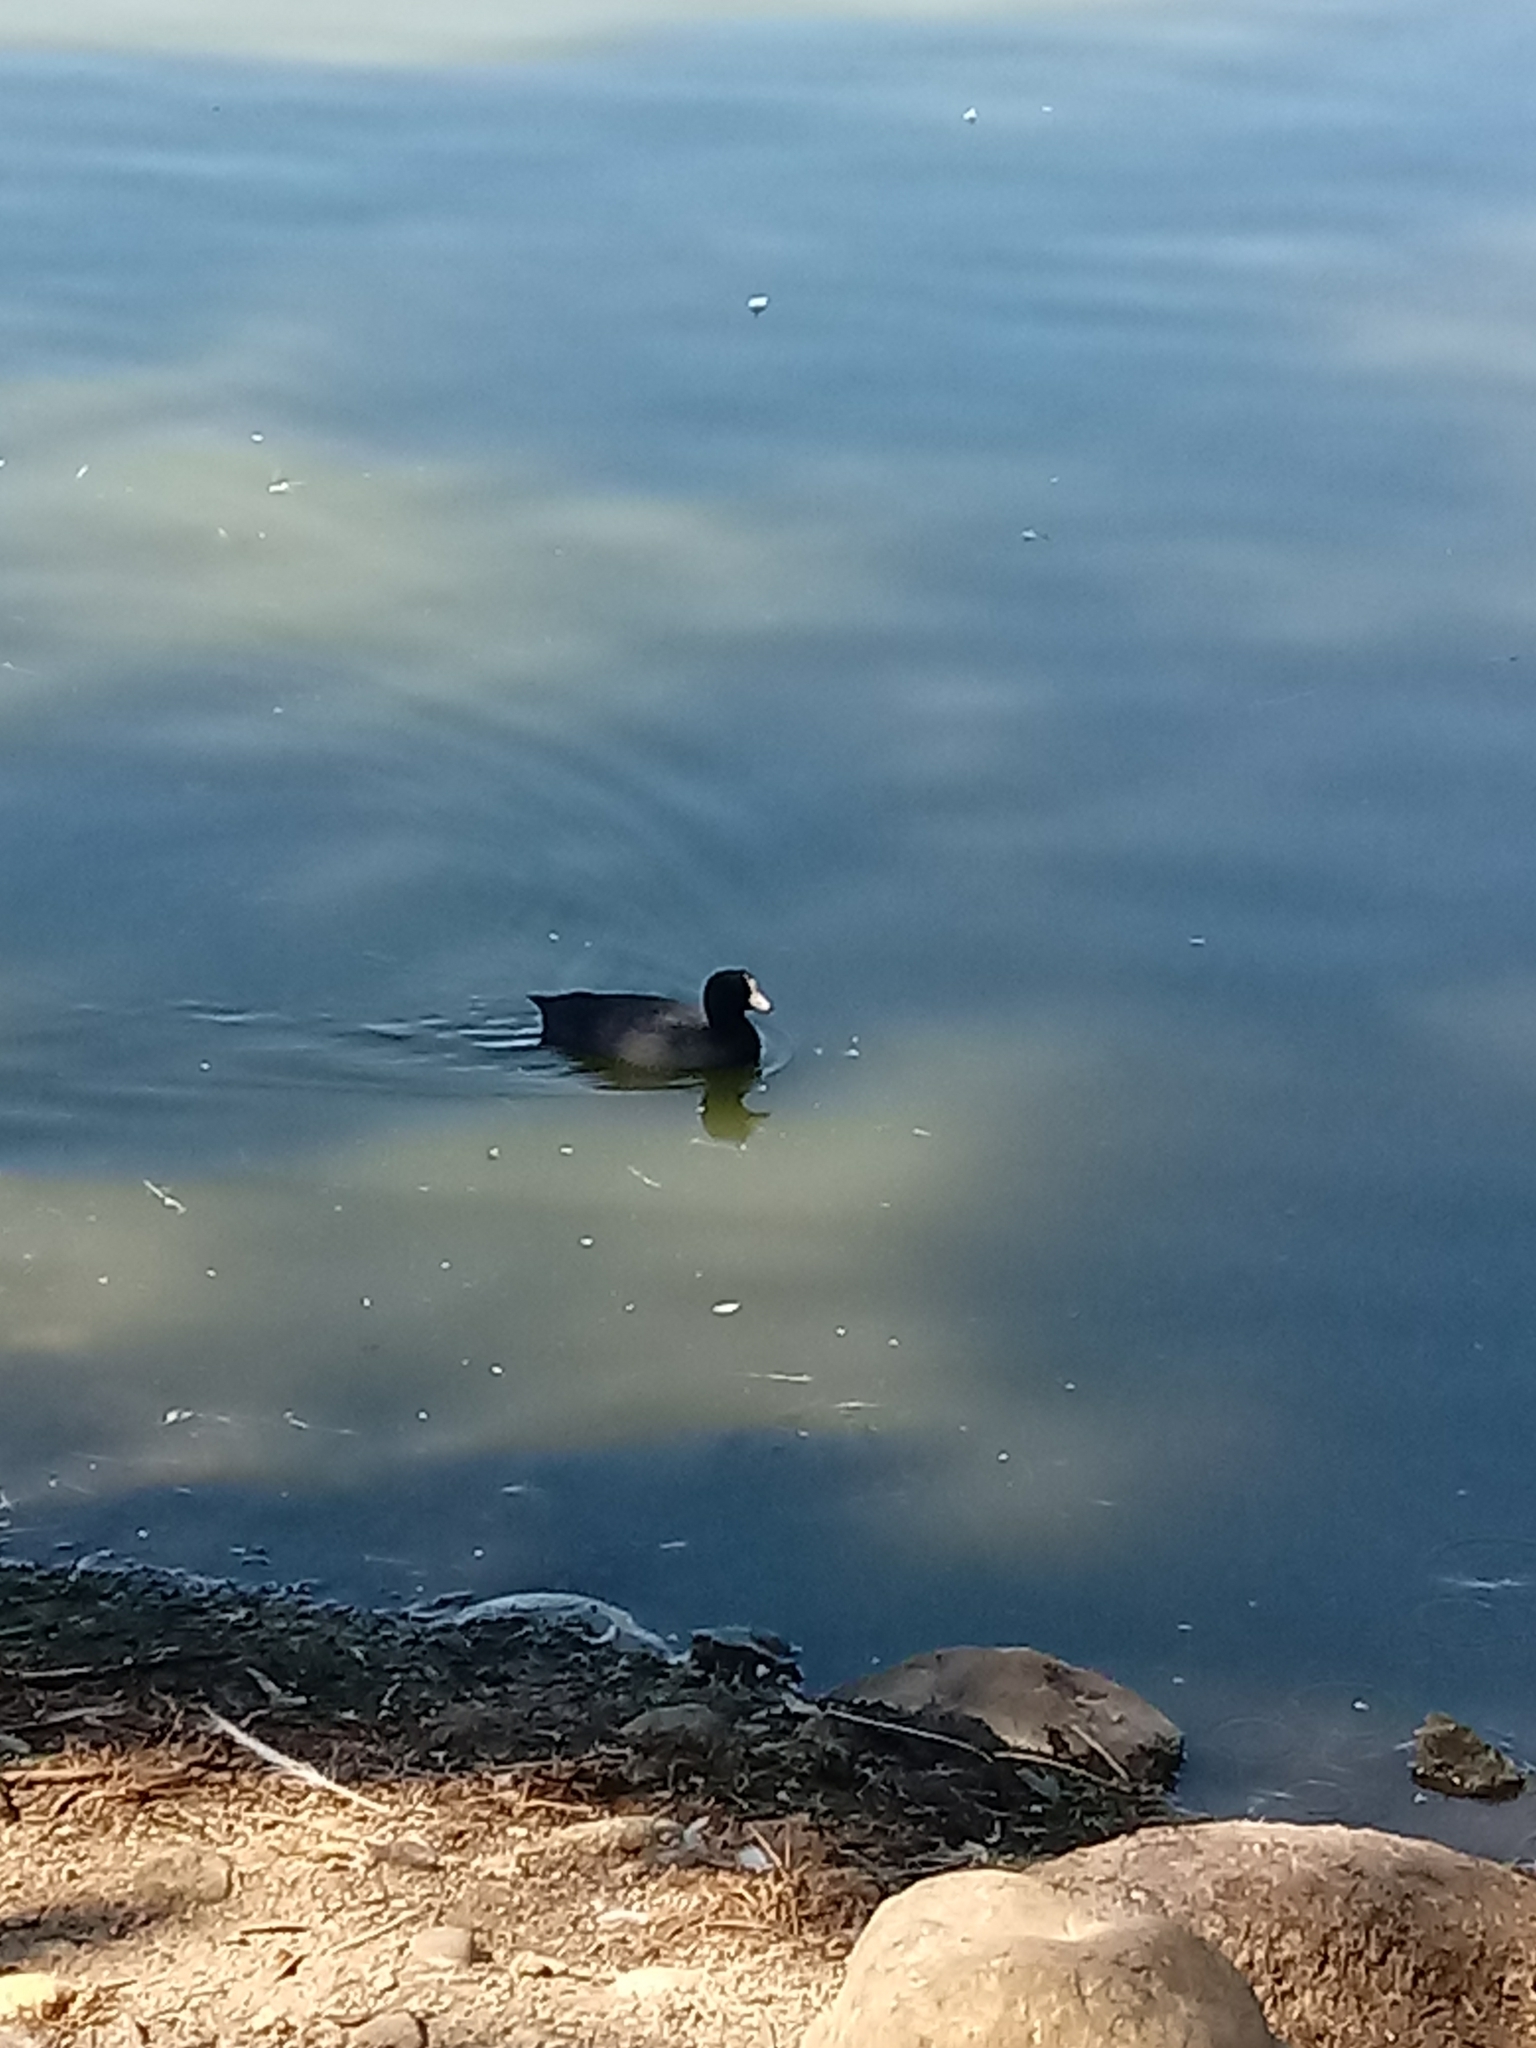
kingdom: Animalia
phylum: Chordata
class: Aves
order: Gruiformes
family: Rallidae
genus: Fulica
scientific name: Fulica americana
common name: American coot
